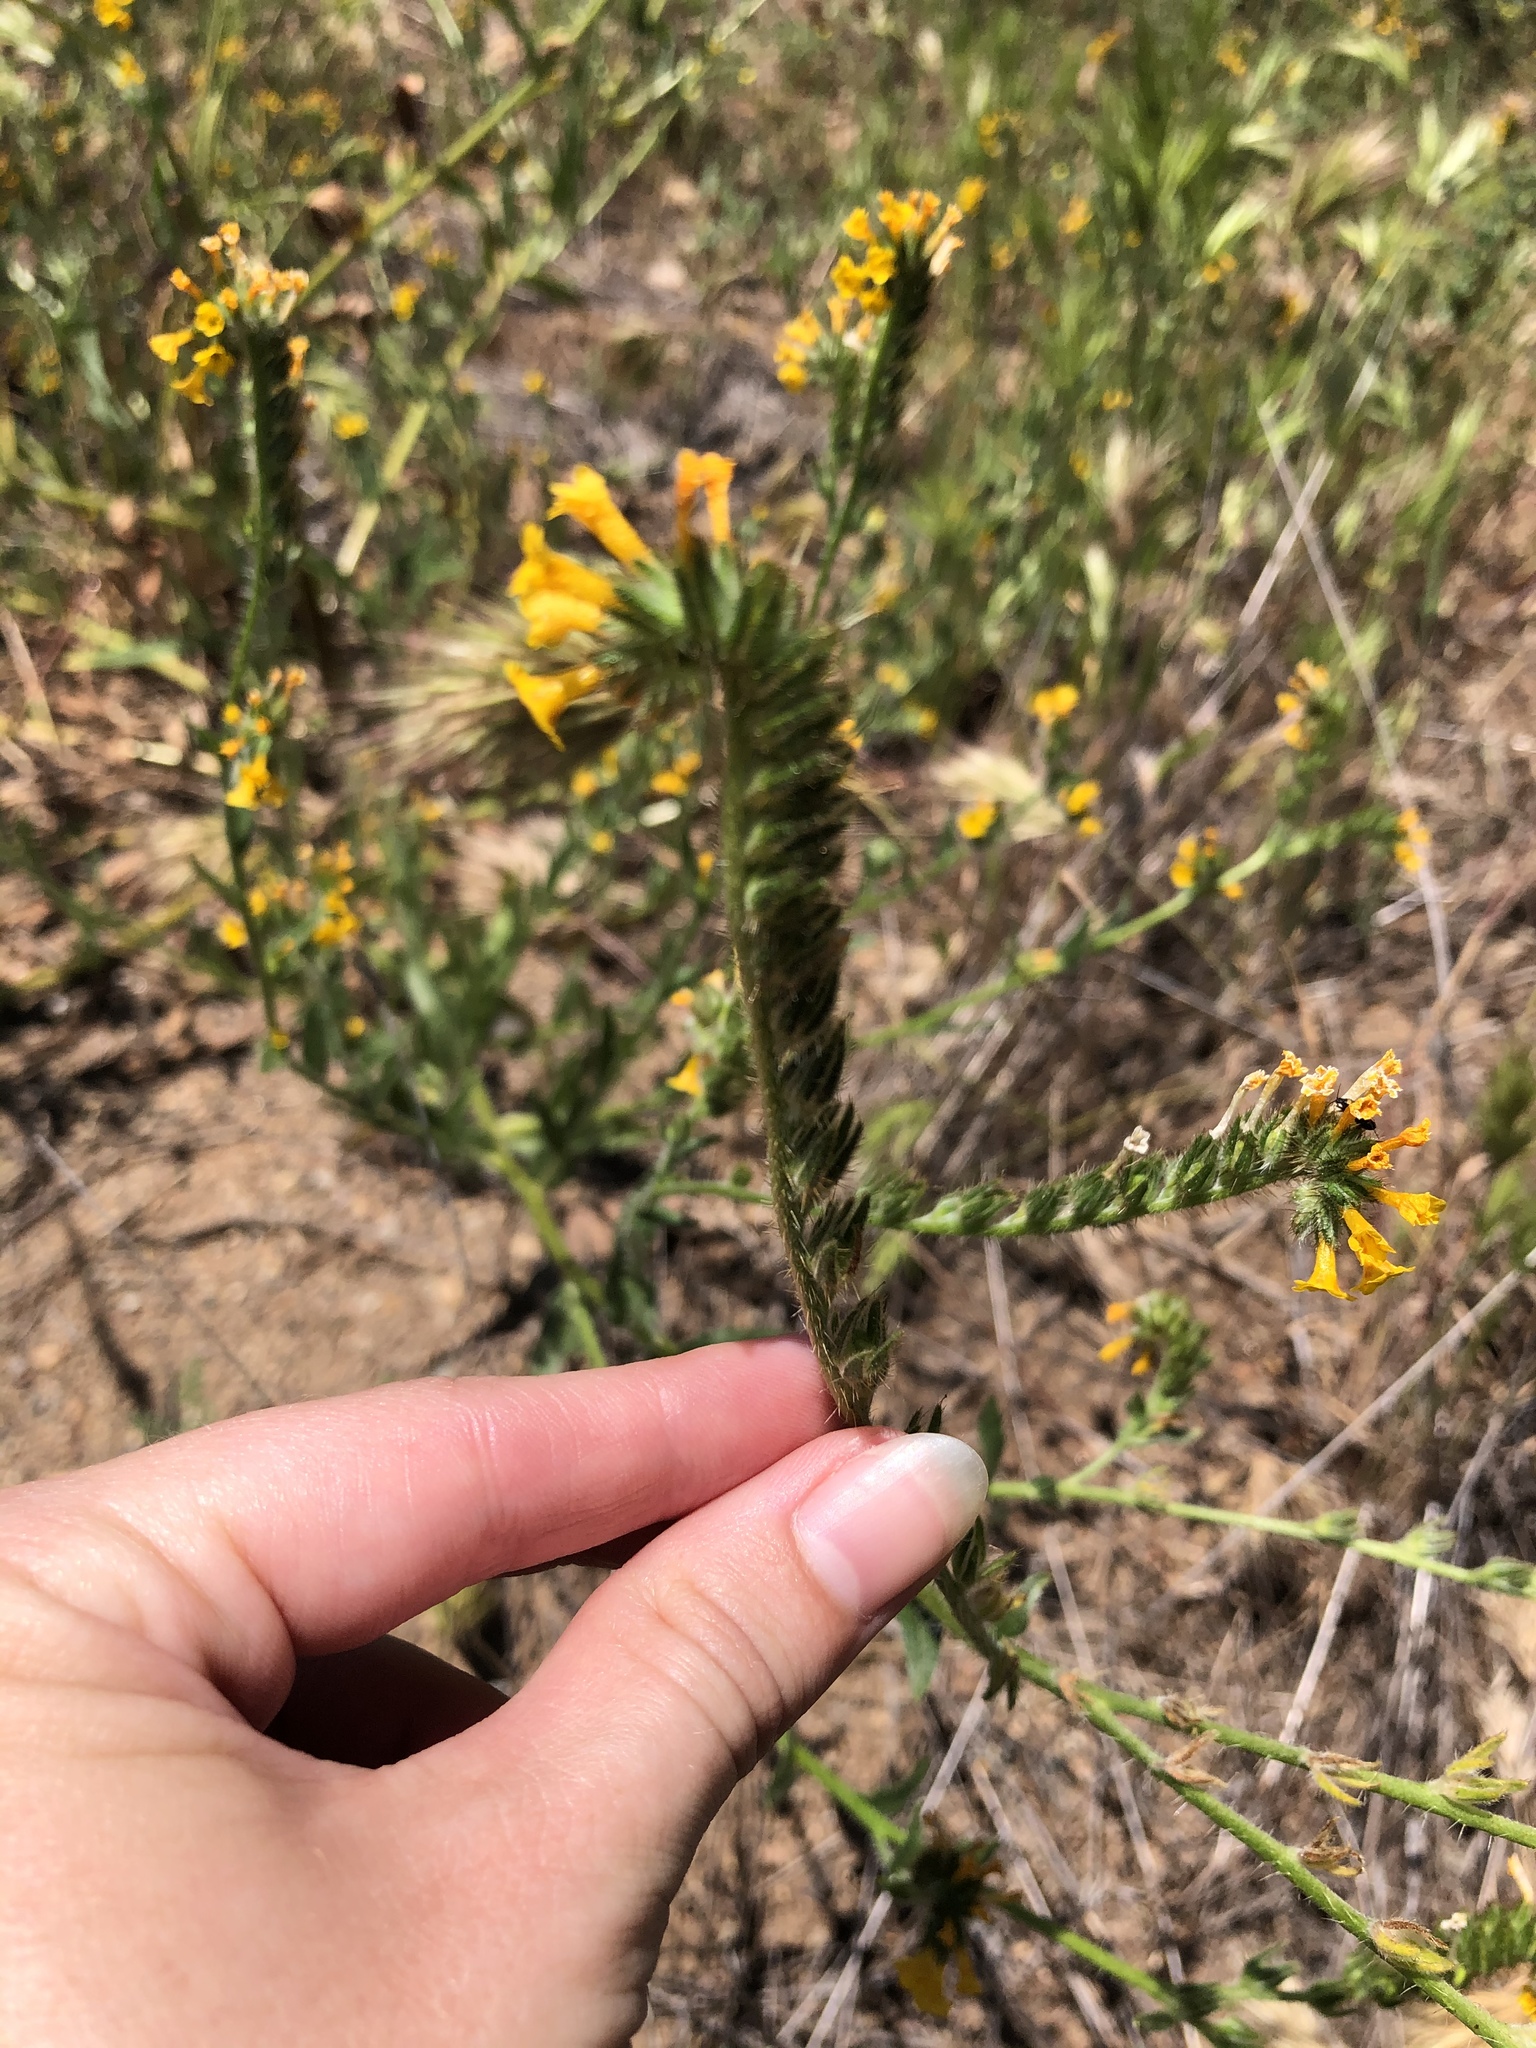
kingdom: Plantae
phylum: Tracheophyta
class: Magnoliopsida
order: Boraginales
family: Boraginaceae
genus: Amsinckia
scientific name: Amsinckia menziesii
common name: Menzies' fiddleneck
